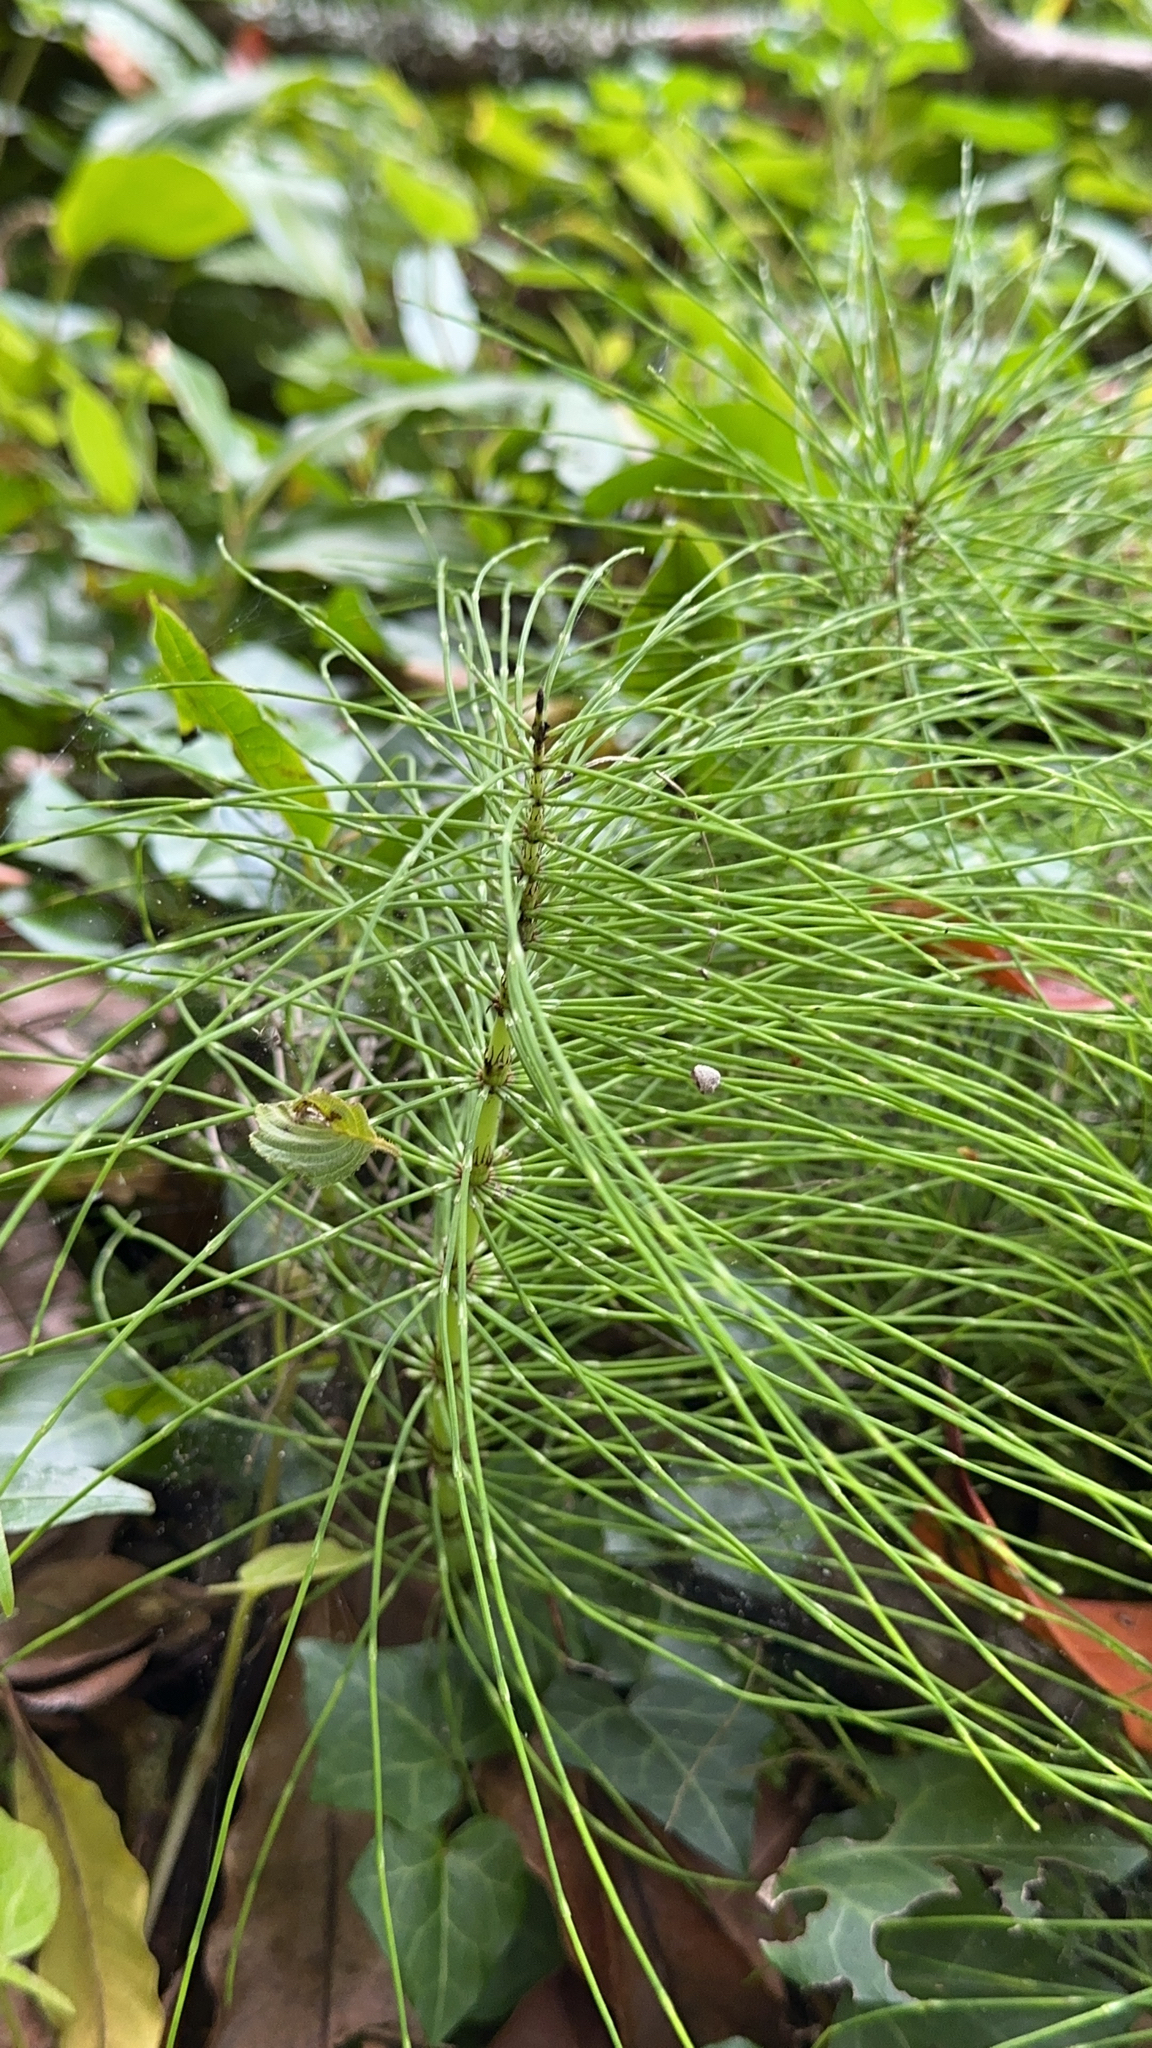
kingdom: Plantae
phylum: Tracheophyta
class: Polypodiopsida
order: Equisetales
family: Equisetaceae
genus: Equisetum
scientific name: Equisetum telmateia
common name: Great horsetail
